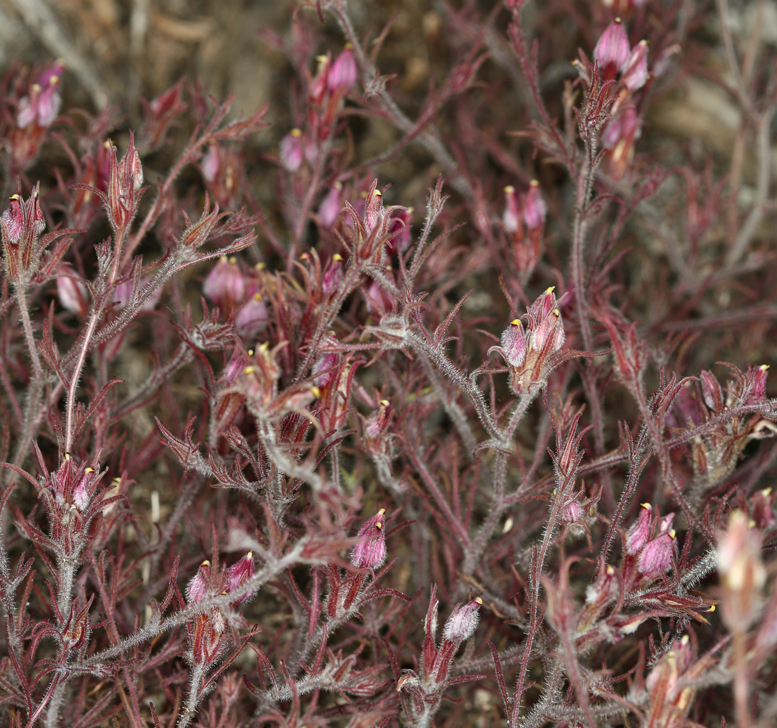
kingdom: Plantae
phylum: Tracheophyta
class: Magnoliopsida
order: Lamiales
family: Orobanchaceae
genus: Cordylanthus
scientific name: Cordylanthus kingii
